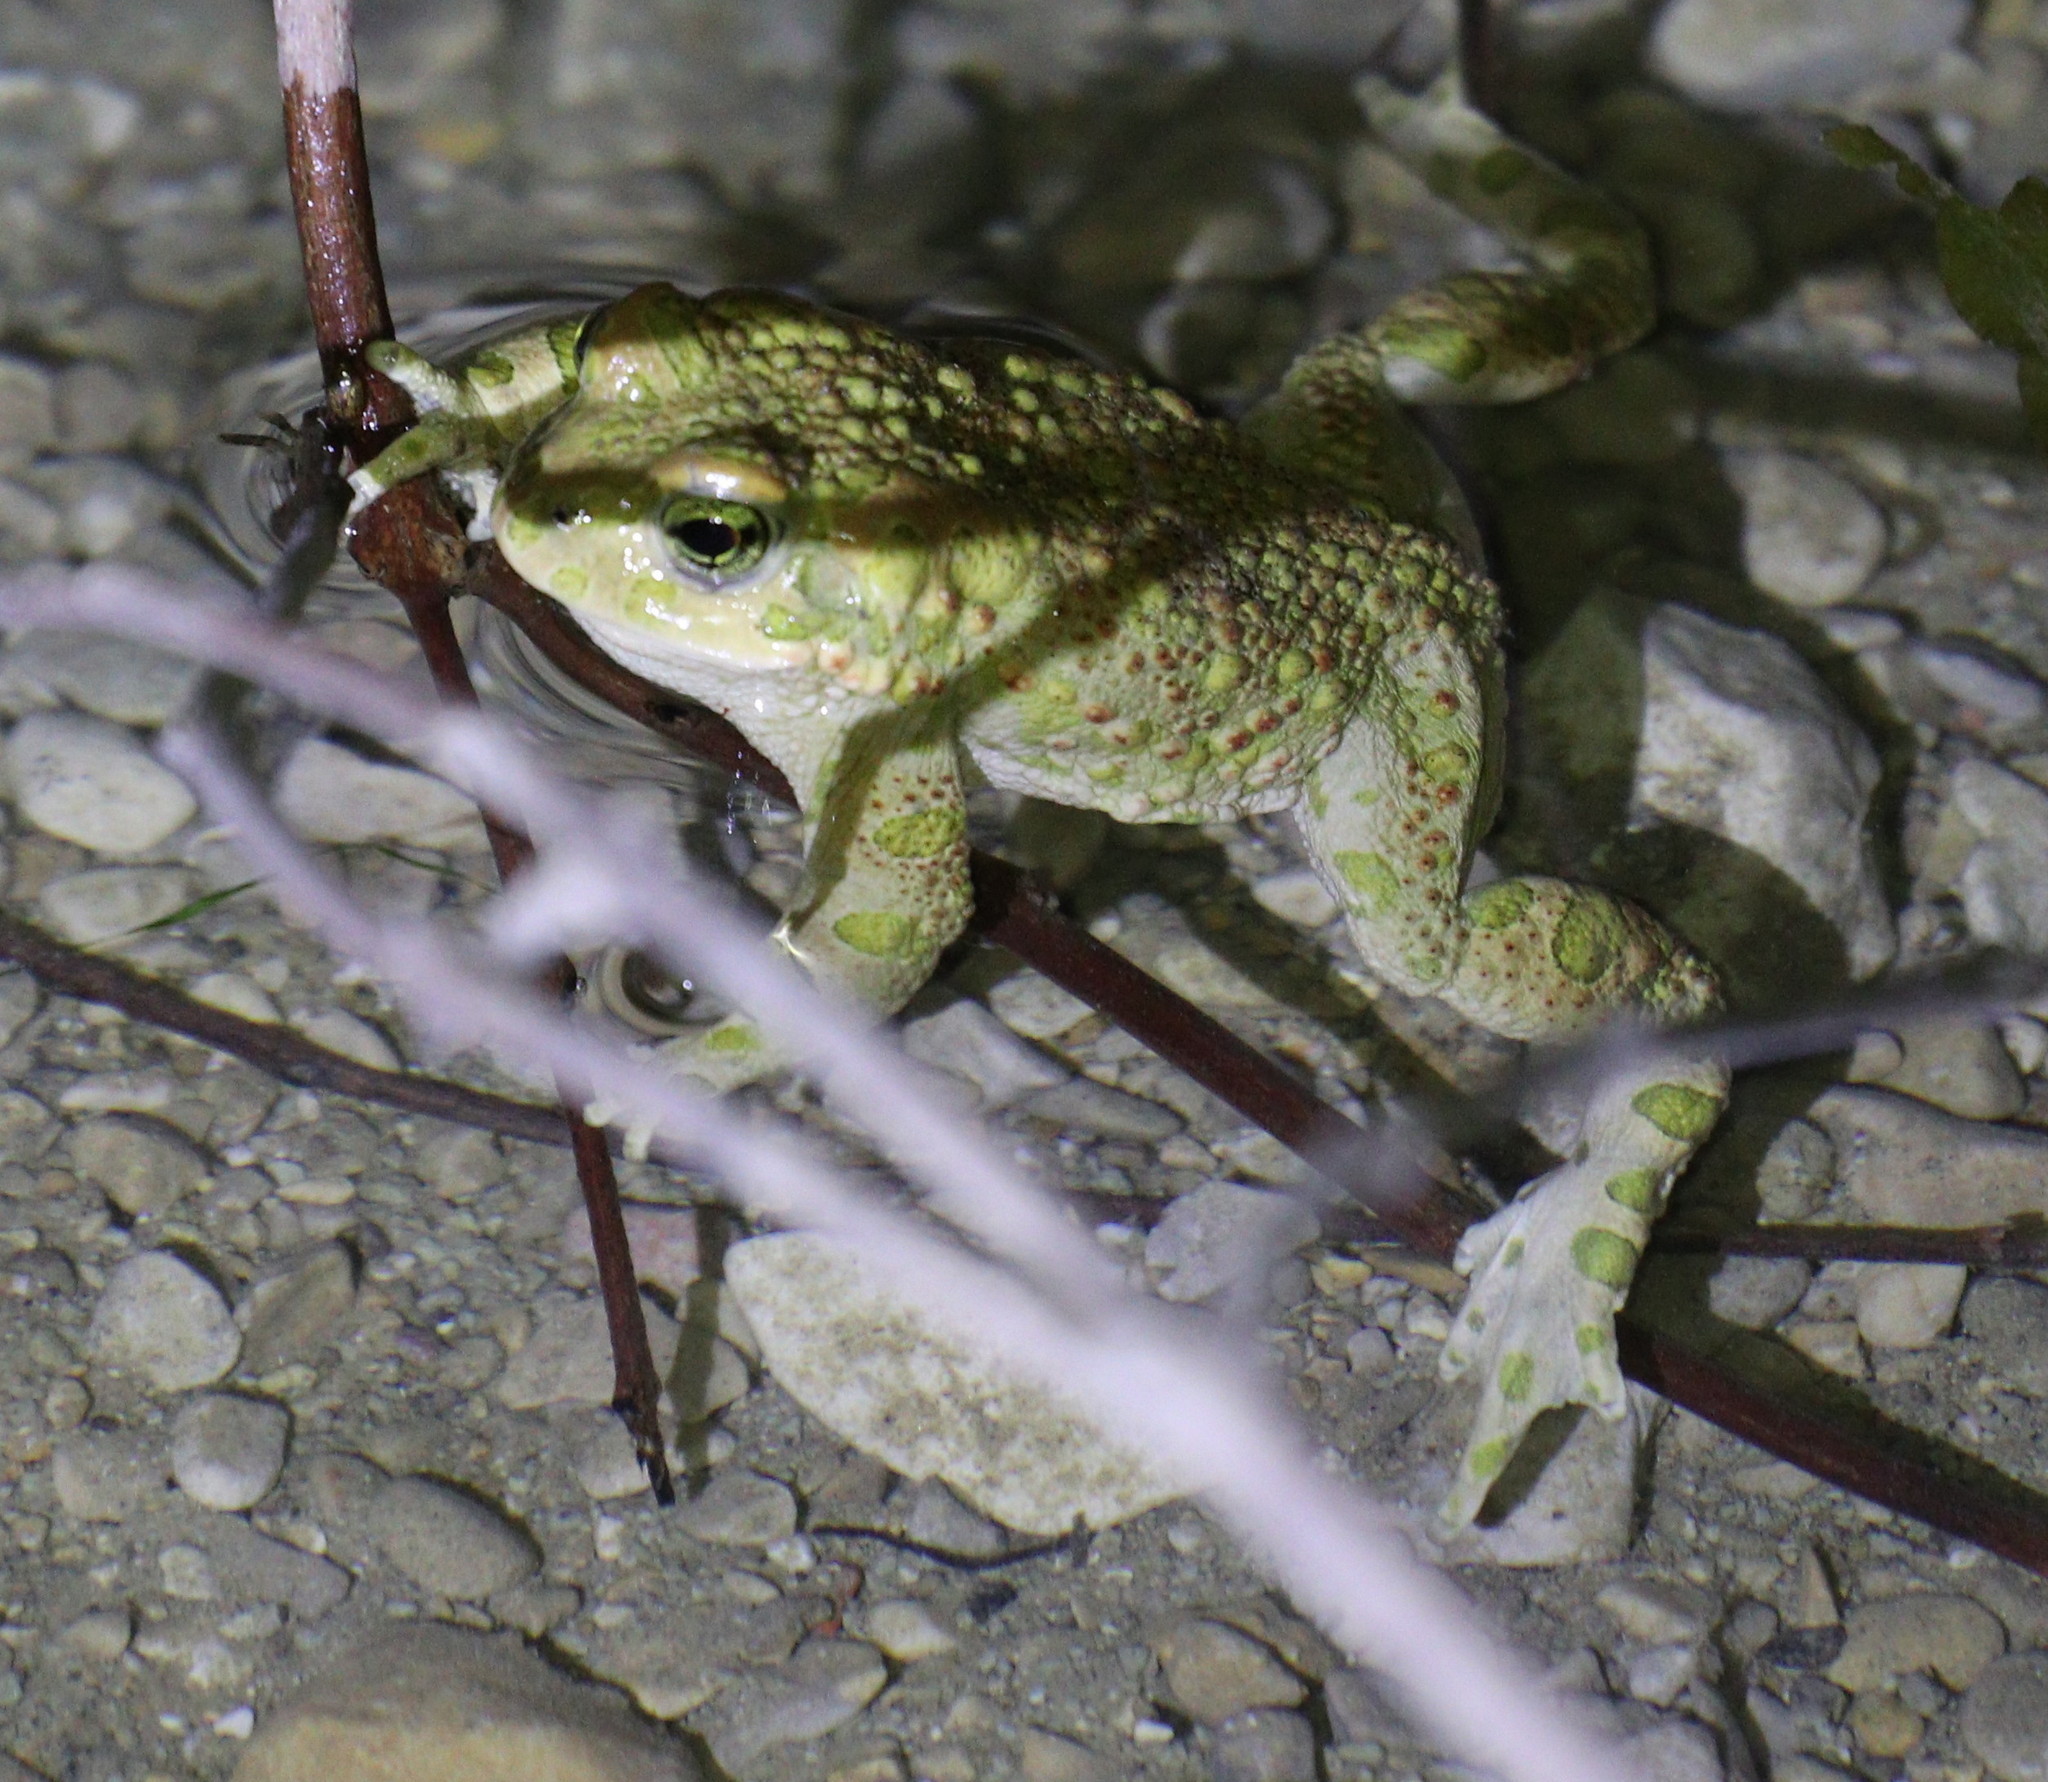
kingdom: Animalia
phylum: Chordata
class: Amphibia
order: Anura
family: Bufonidae
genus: Bufotes
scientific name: Bufotes viridis
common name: European green toad
